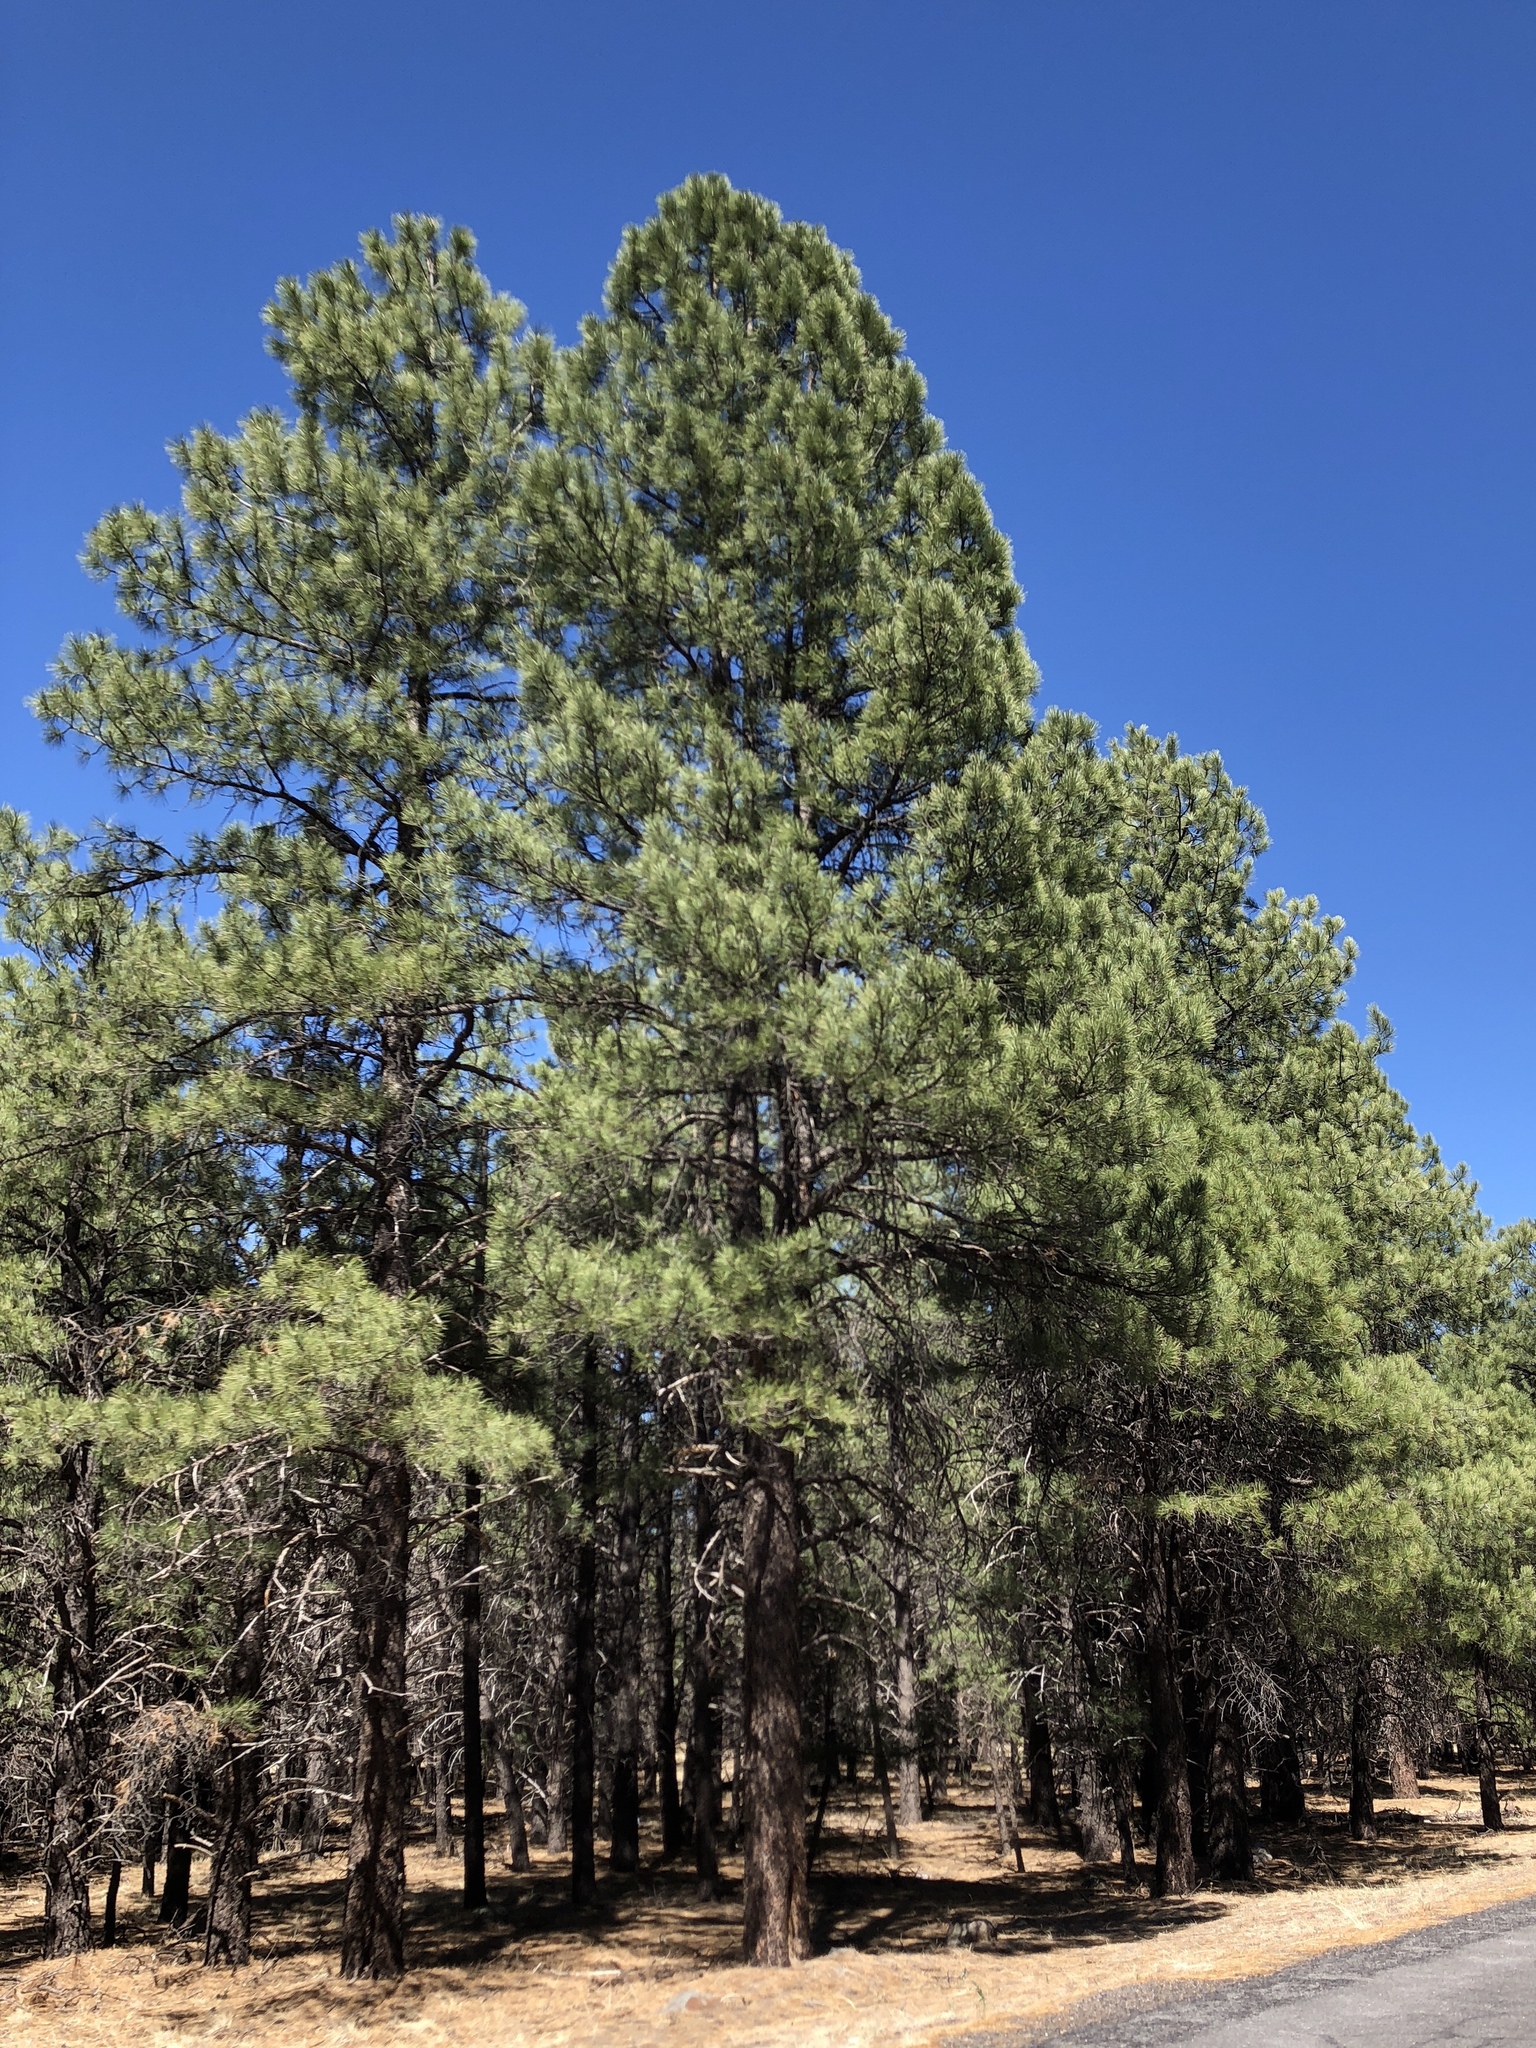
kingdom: Plantae
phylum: Tracheophyta
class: Pinopsida
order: Pinales
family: Pinaceae
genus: Pinus
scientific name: Pinus ponderosa
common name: Western yellow-pine
